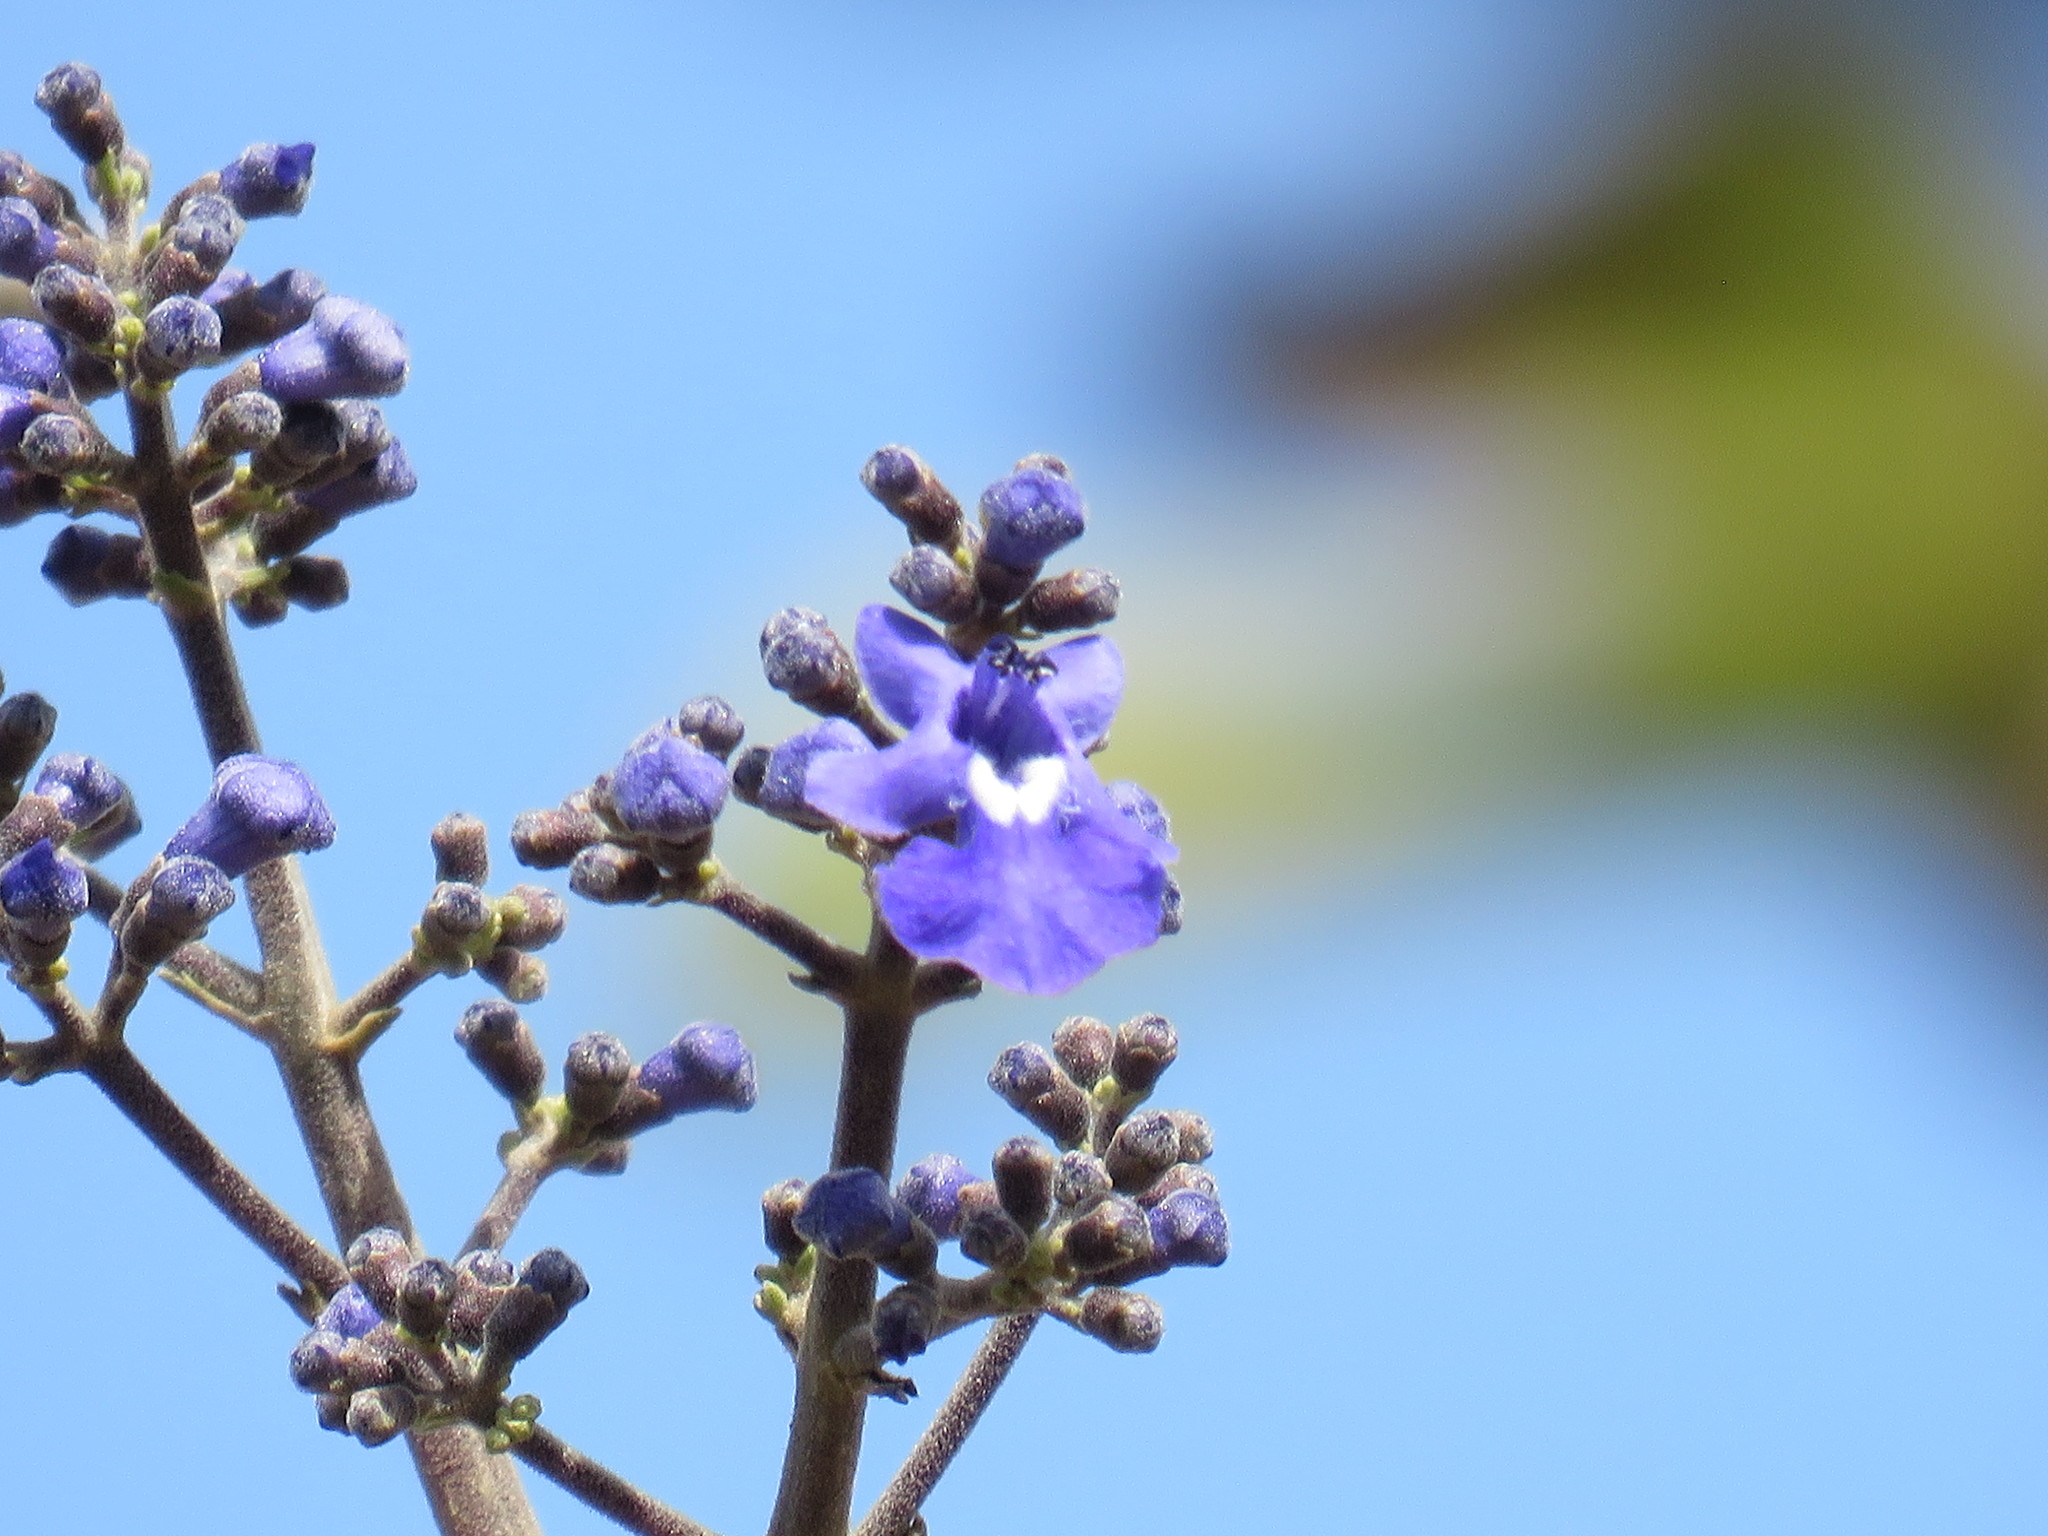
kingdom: Plantae
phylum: Tracheophyta
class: Magnoliopsida
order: Lamiales
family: Lamiaceae
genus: Vitex
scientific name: Vitex pyramidata
